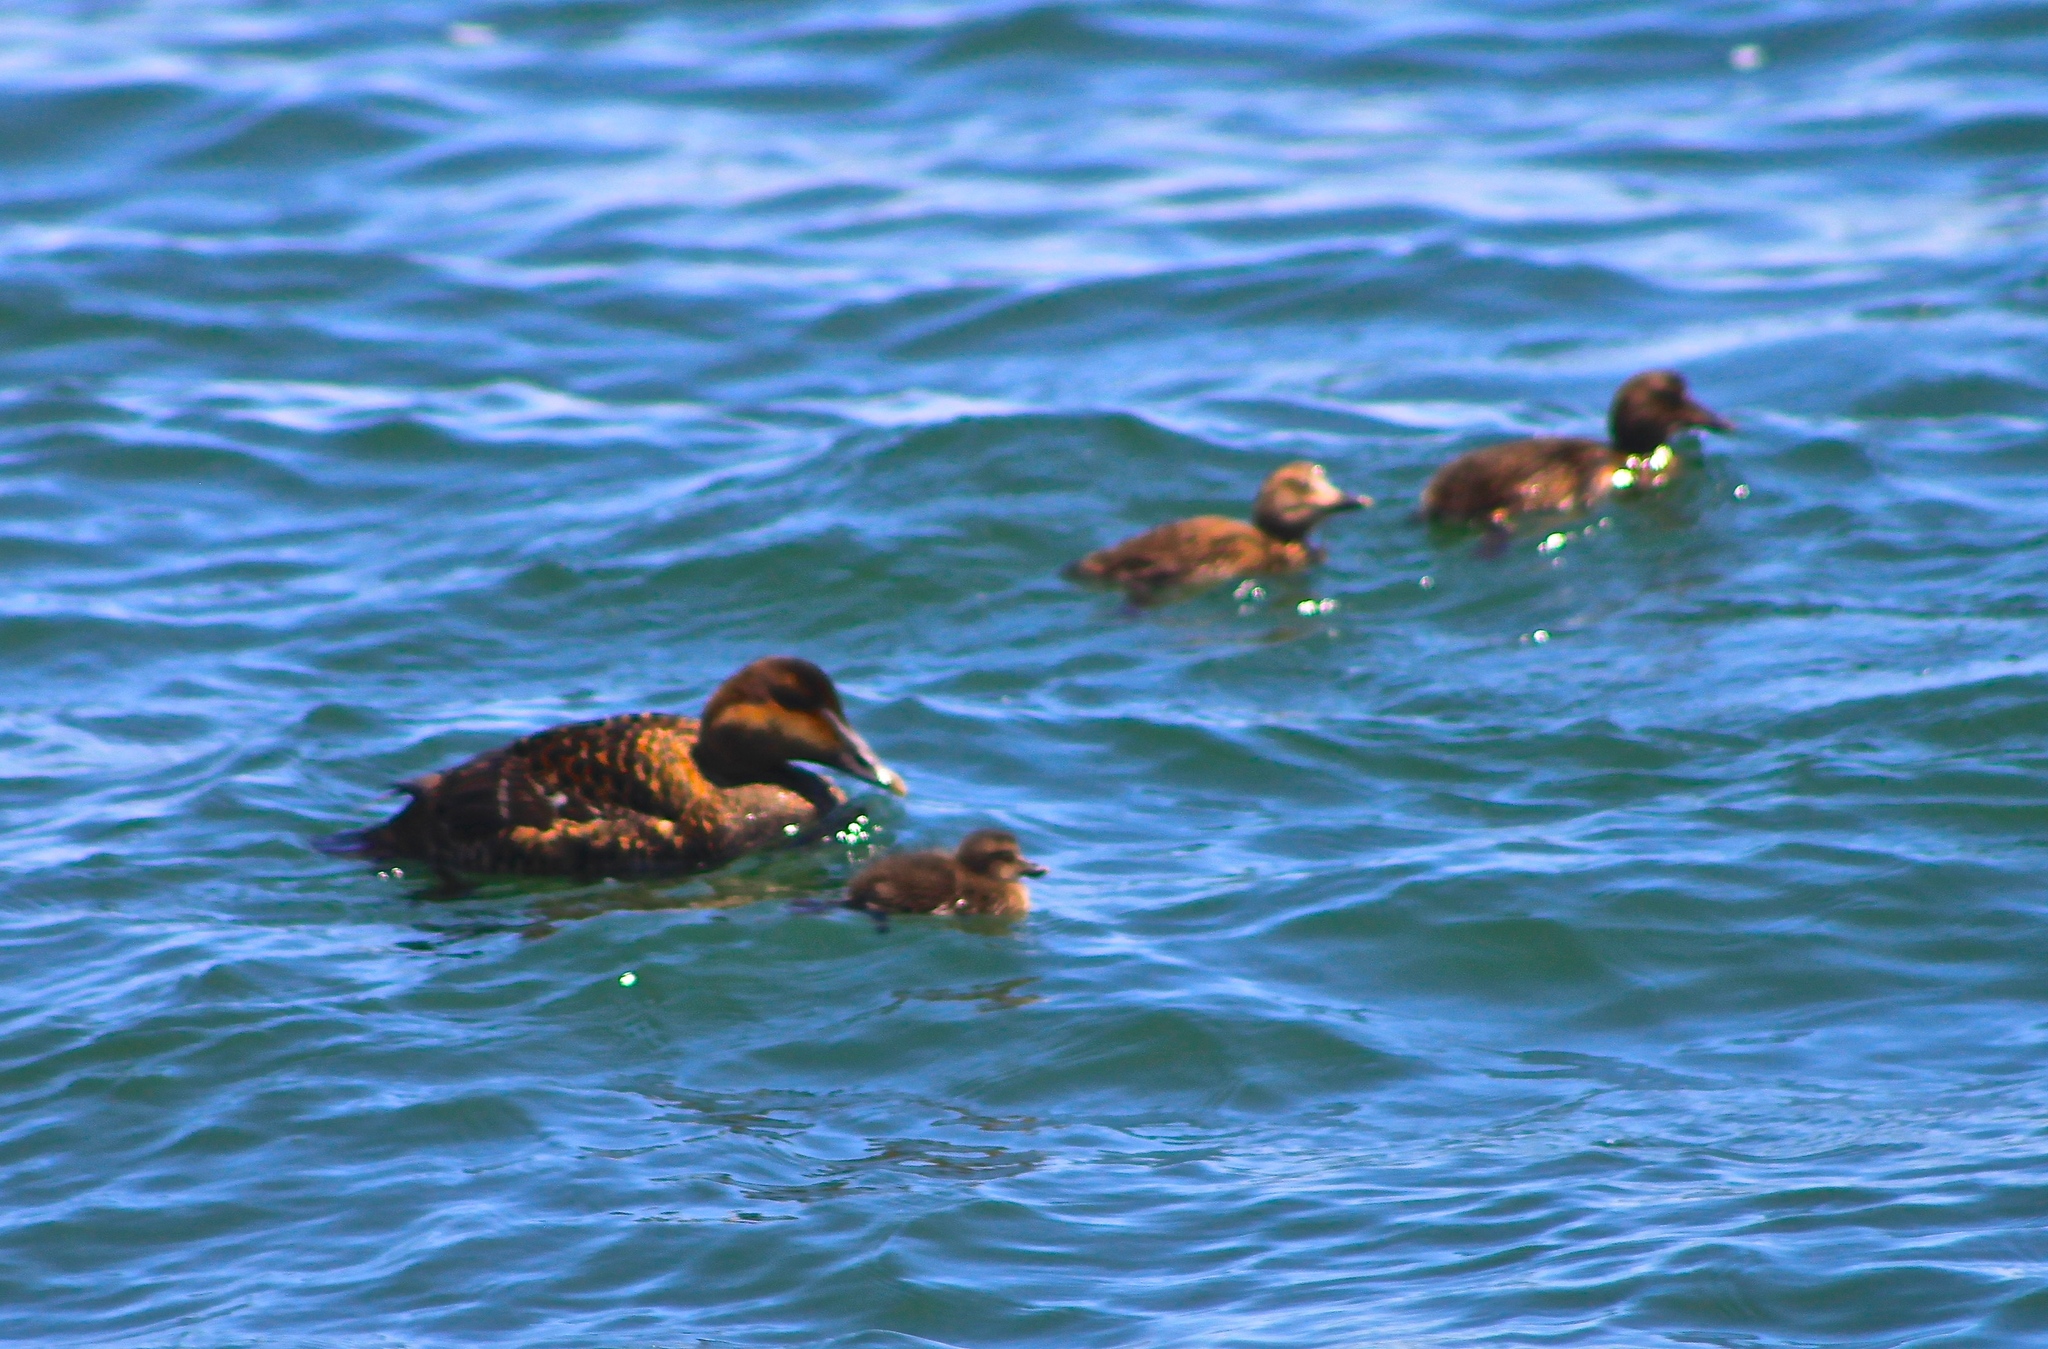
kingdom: Animalia
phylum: Chordata
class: Aves
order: Anseriformes
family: Anatidae
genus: Somateria
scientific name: Somateria mollissima
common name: Common eider
